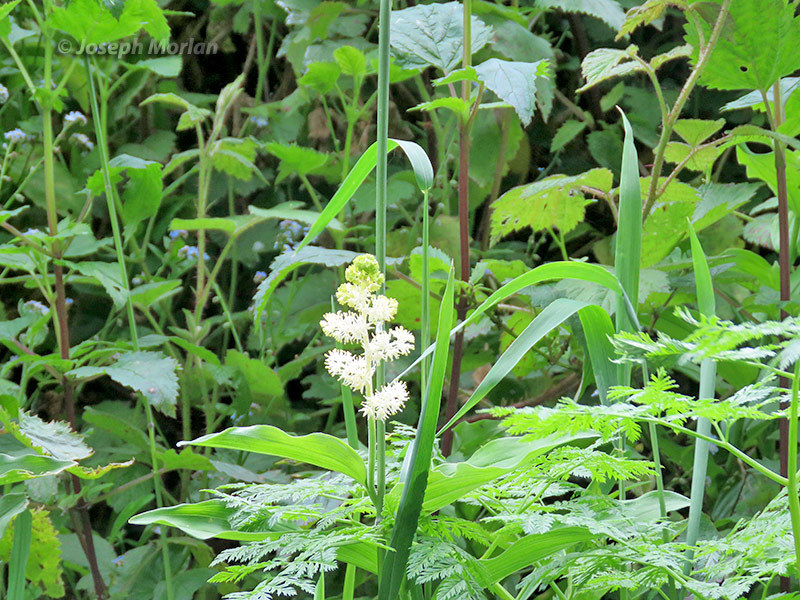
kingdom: Plantae
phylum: Tracheophyta
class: Liliopsida
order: Asparagales
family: Asparagaceae
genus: Maianthemum
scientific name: Maianthemum racemosum
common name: False spikenard
